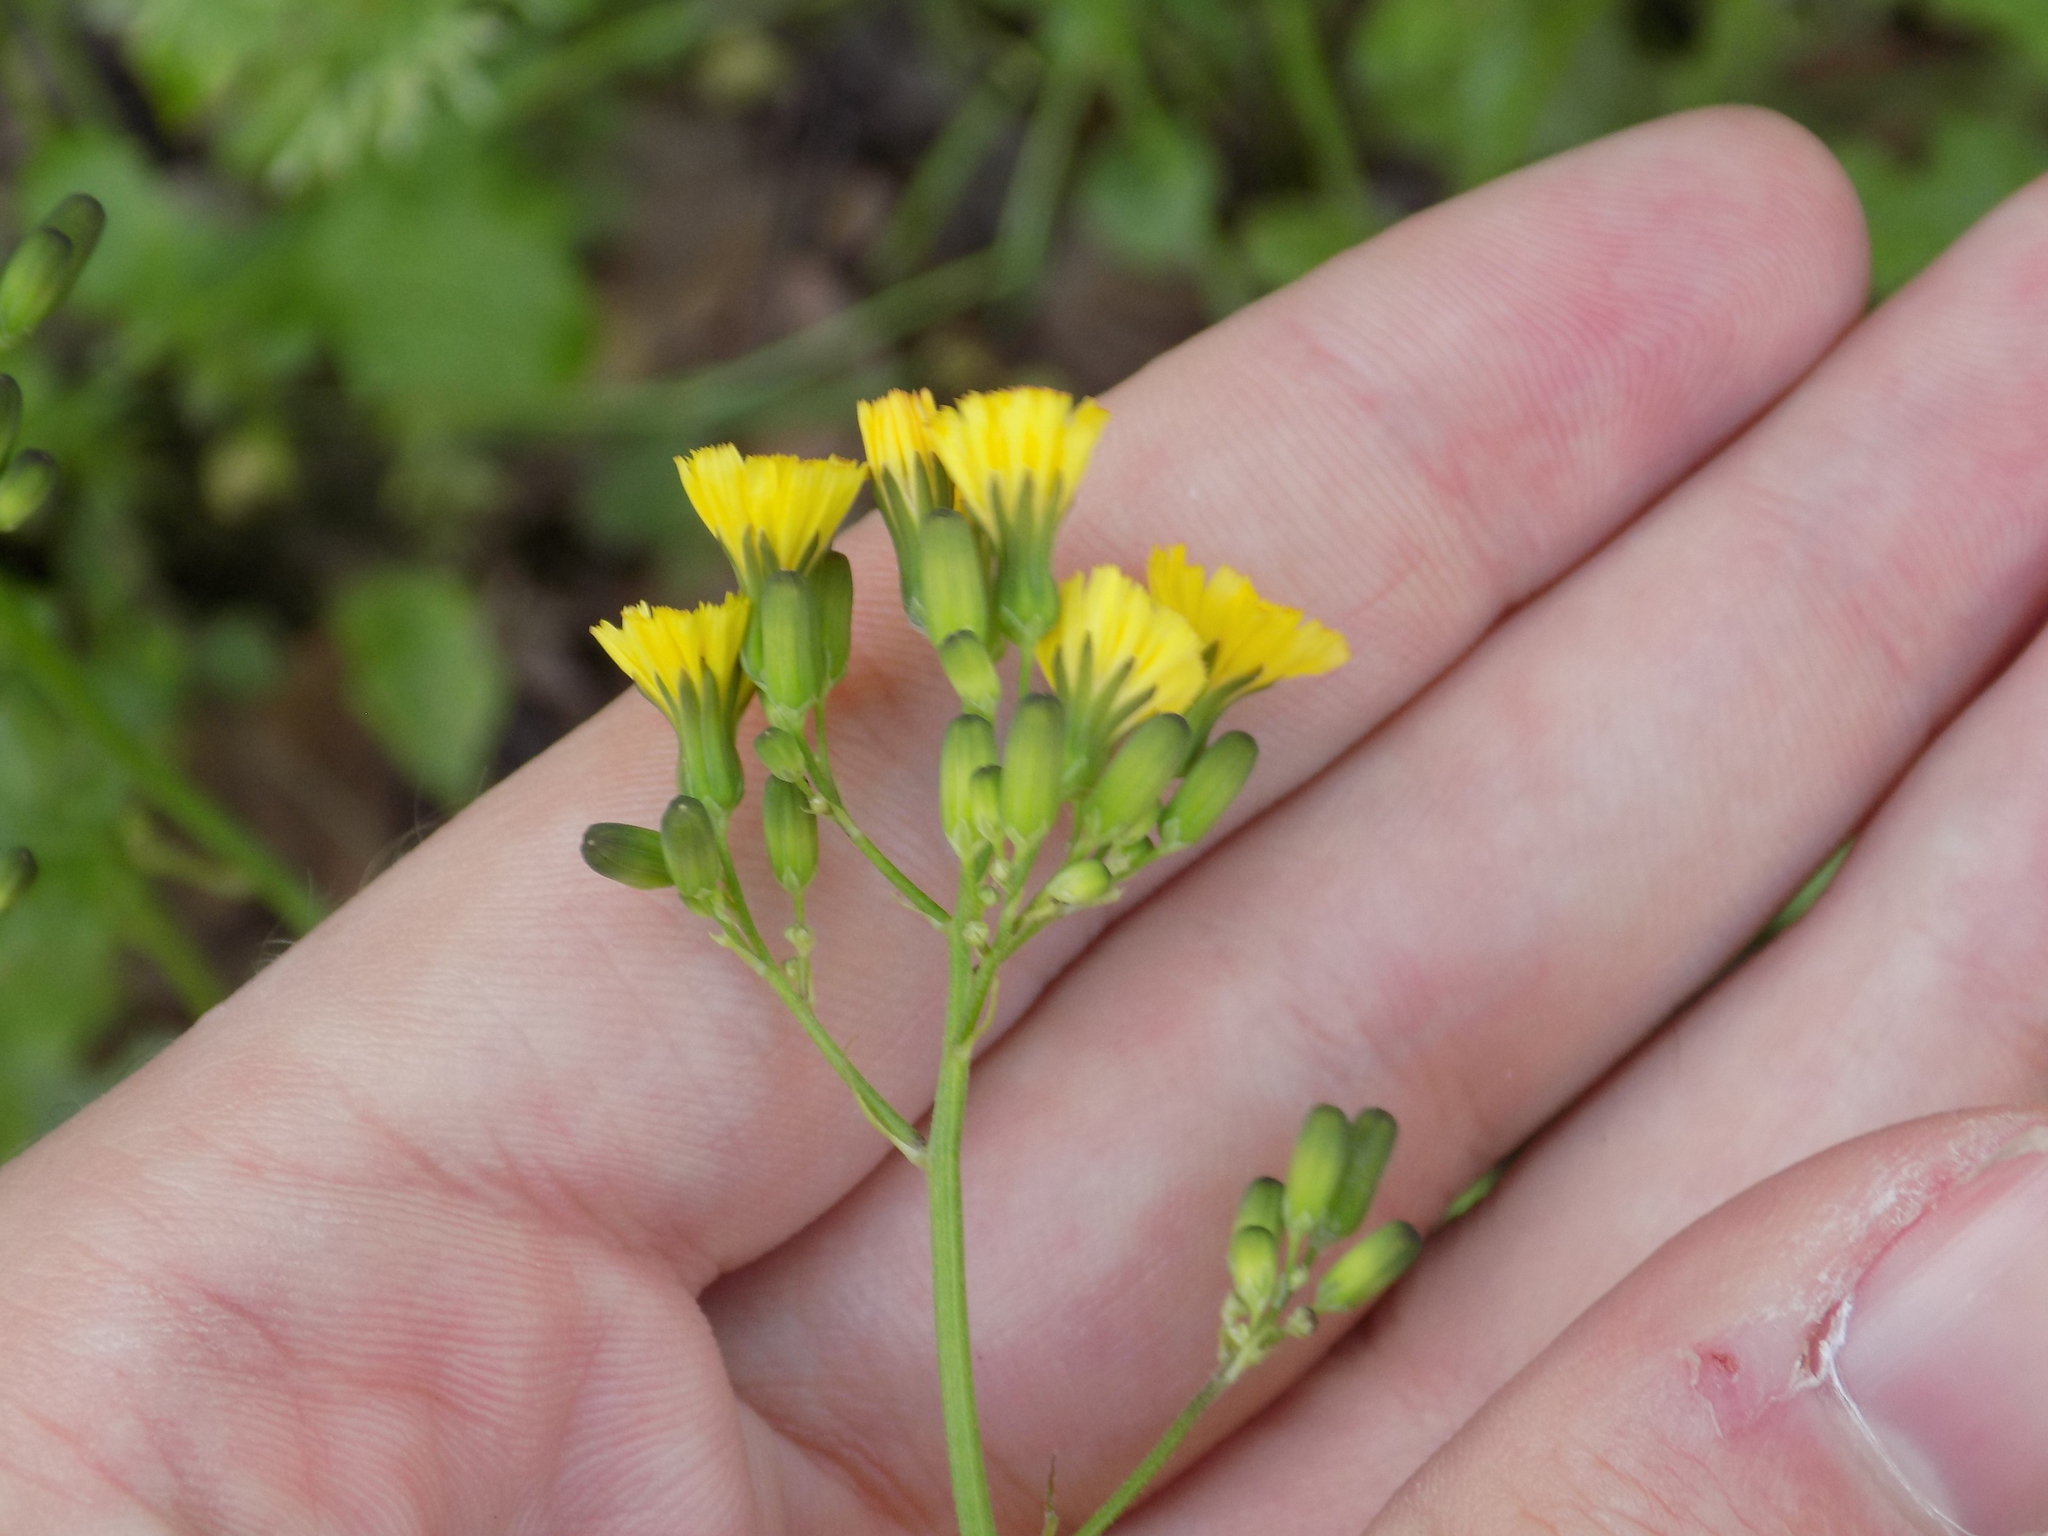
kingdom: Plantae
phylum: Tracheophyta
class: Magnoliopsida
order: Asterales
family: Asteraceae
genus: Youngia
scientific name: Youngia japonica
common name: Oriental false hawksbeard
